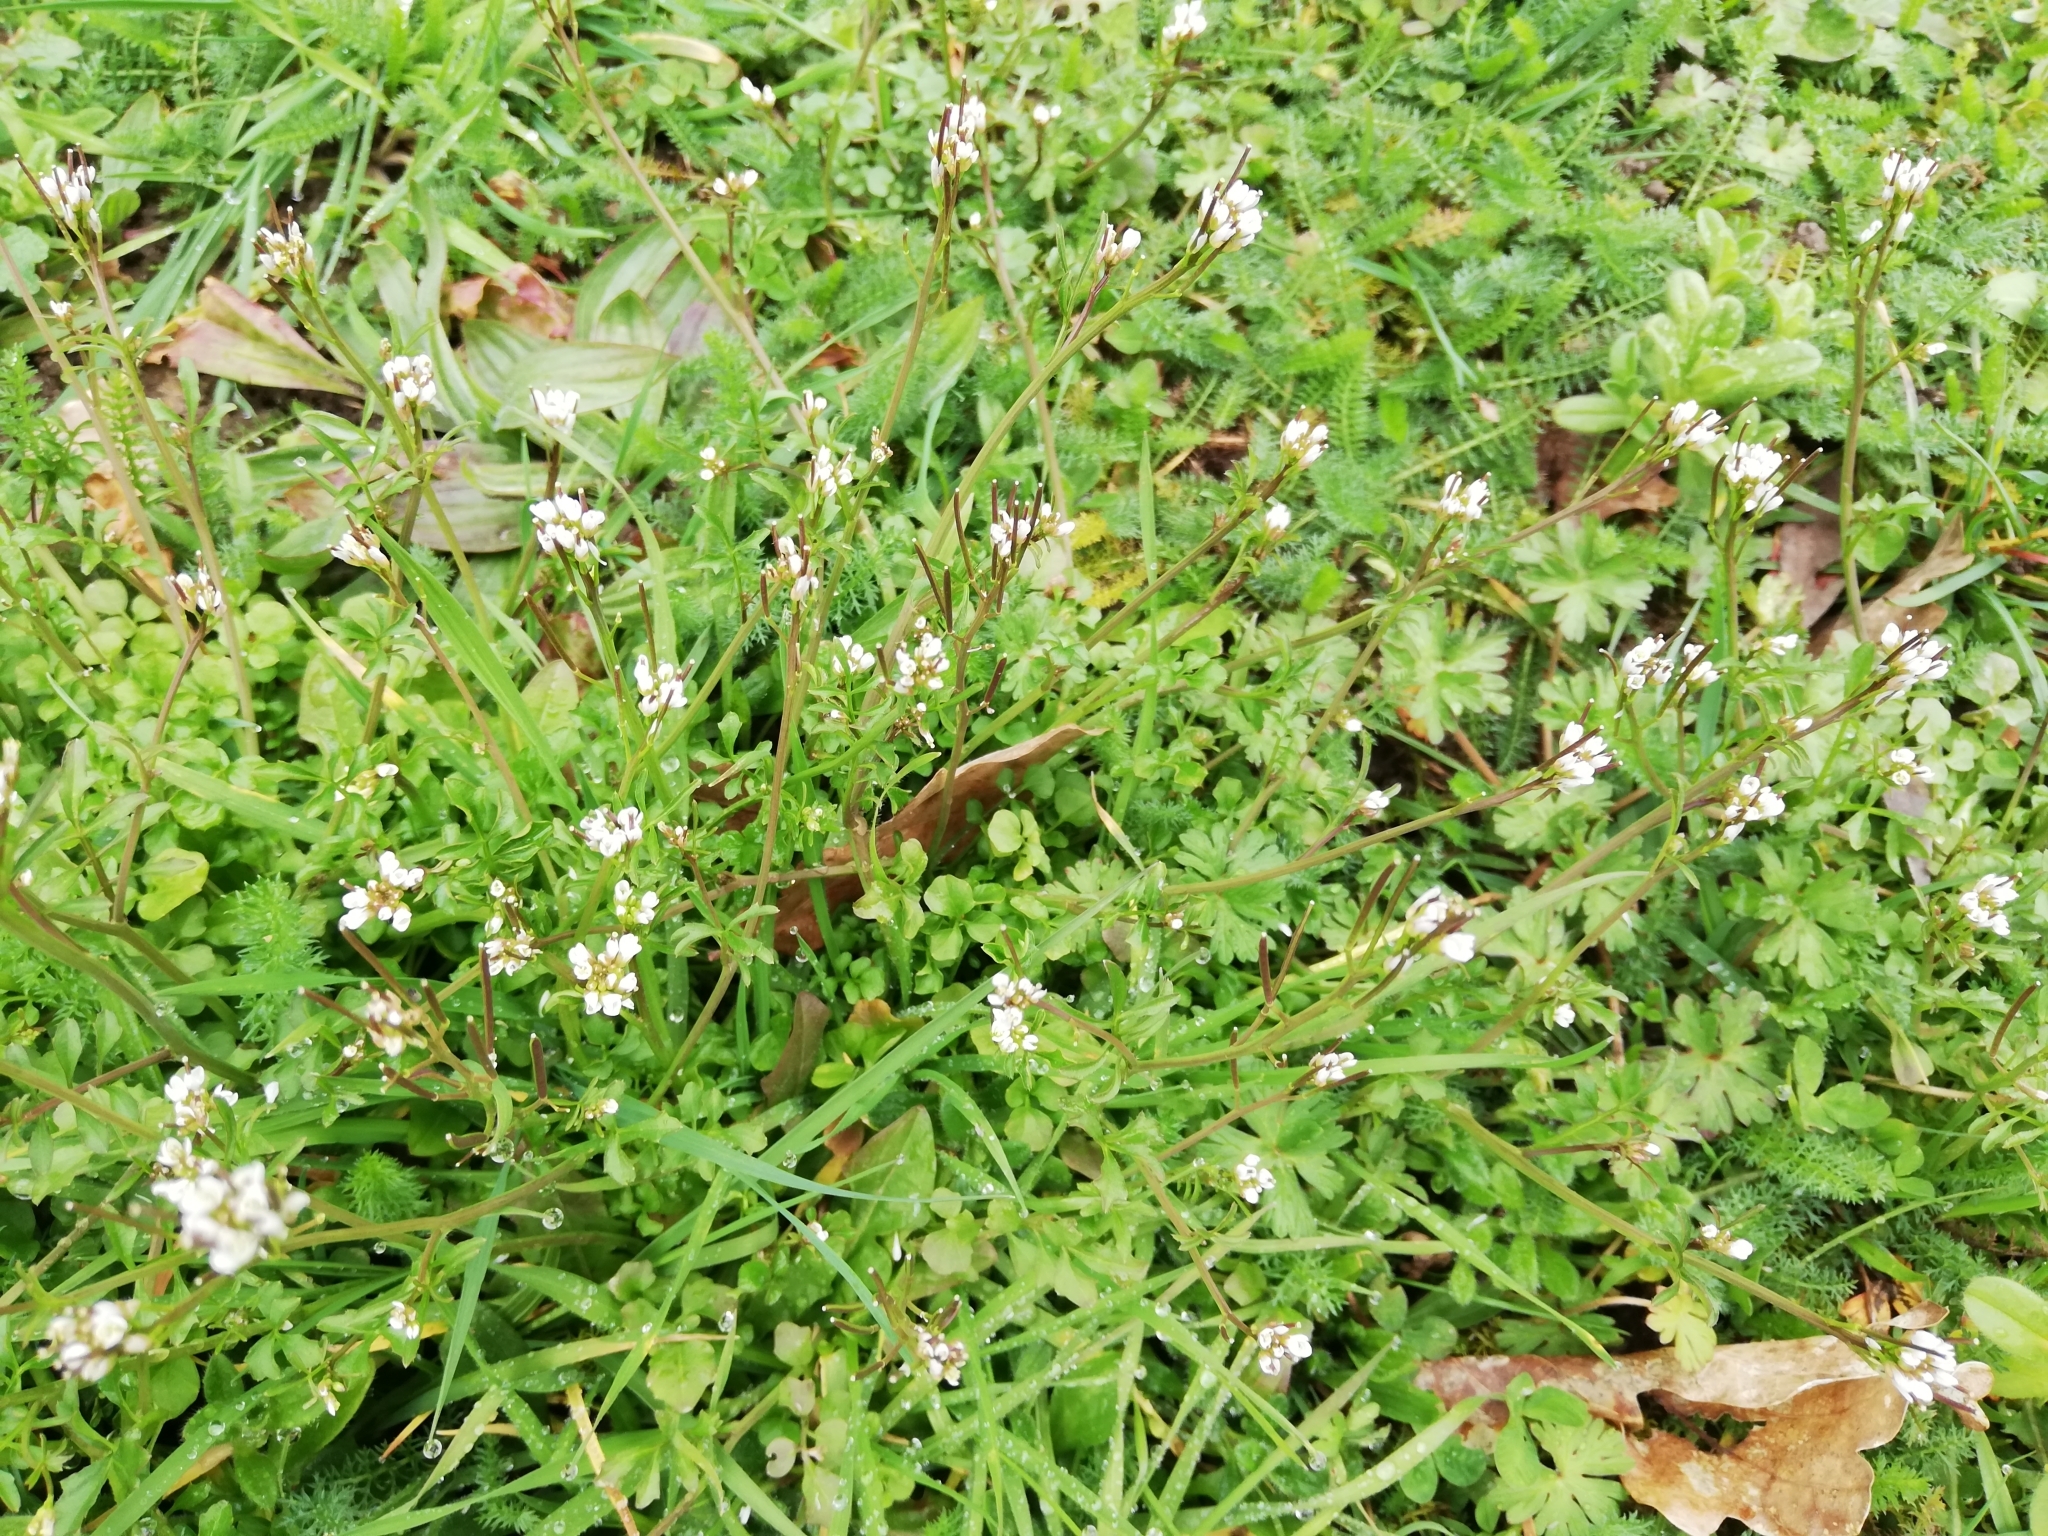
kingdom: Plantae
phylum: Tracheophyta
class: Magnoliopsida
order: Brassicales
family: Brassicaceae
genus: Cardamine
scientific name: Cardamine hirsuta
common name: Hairy bittercress
